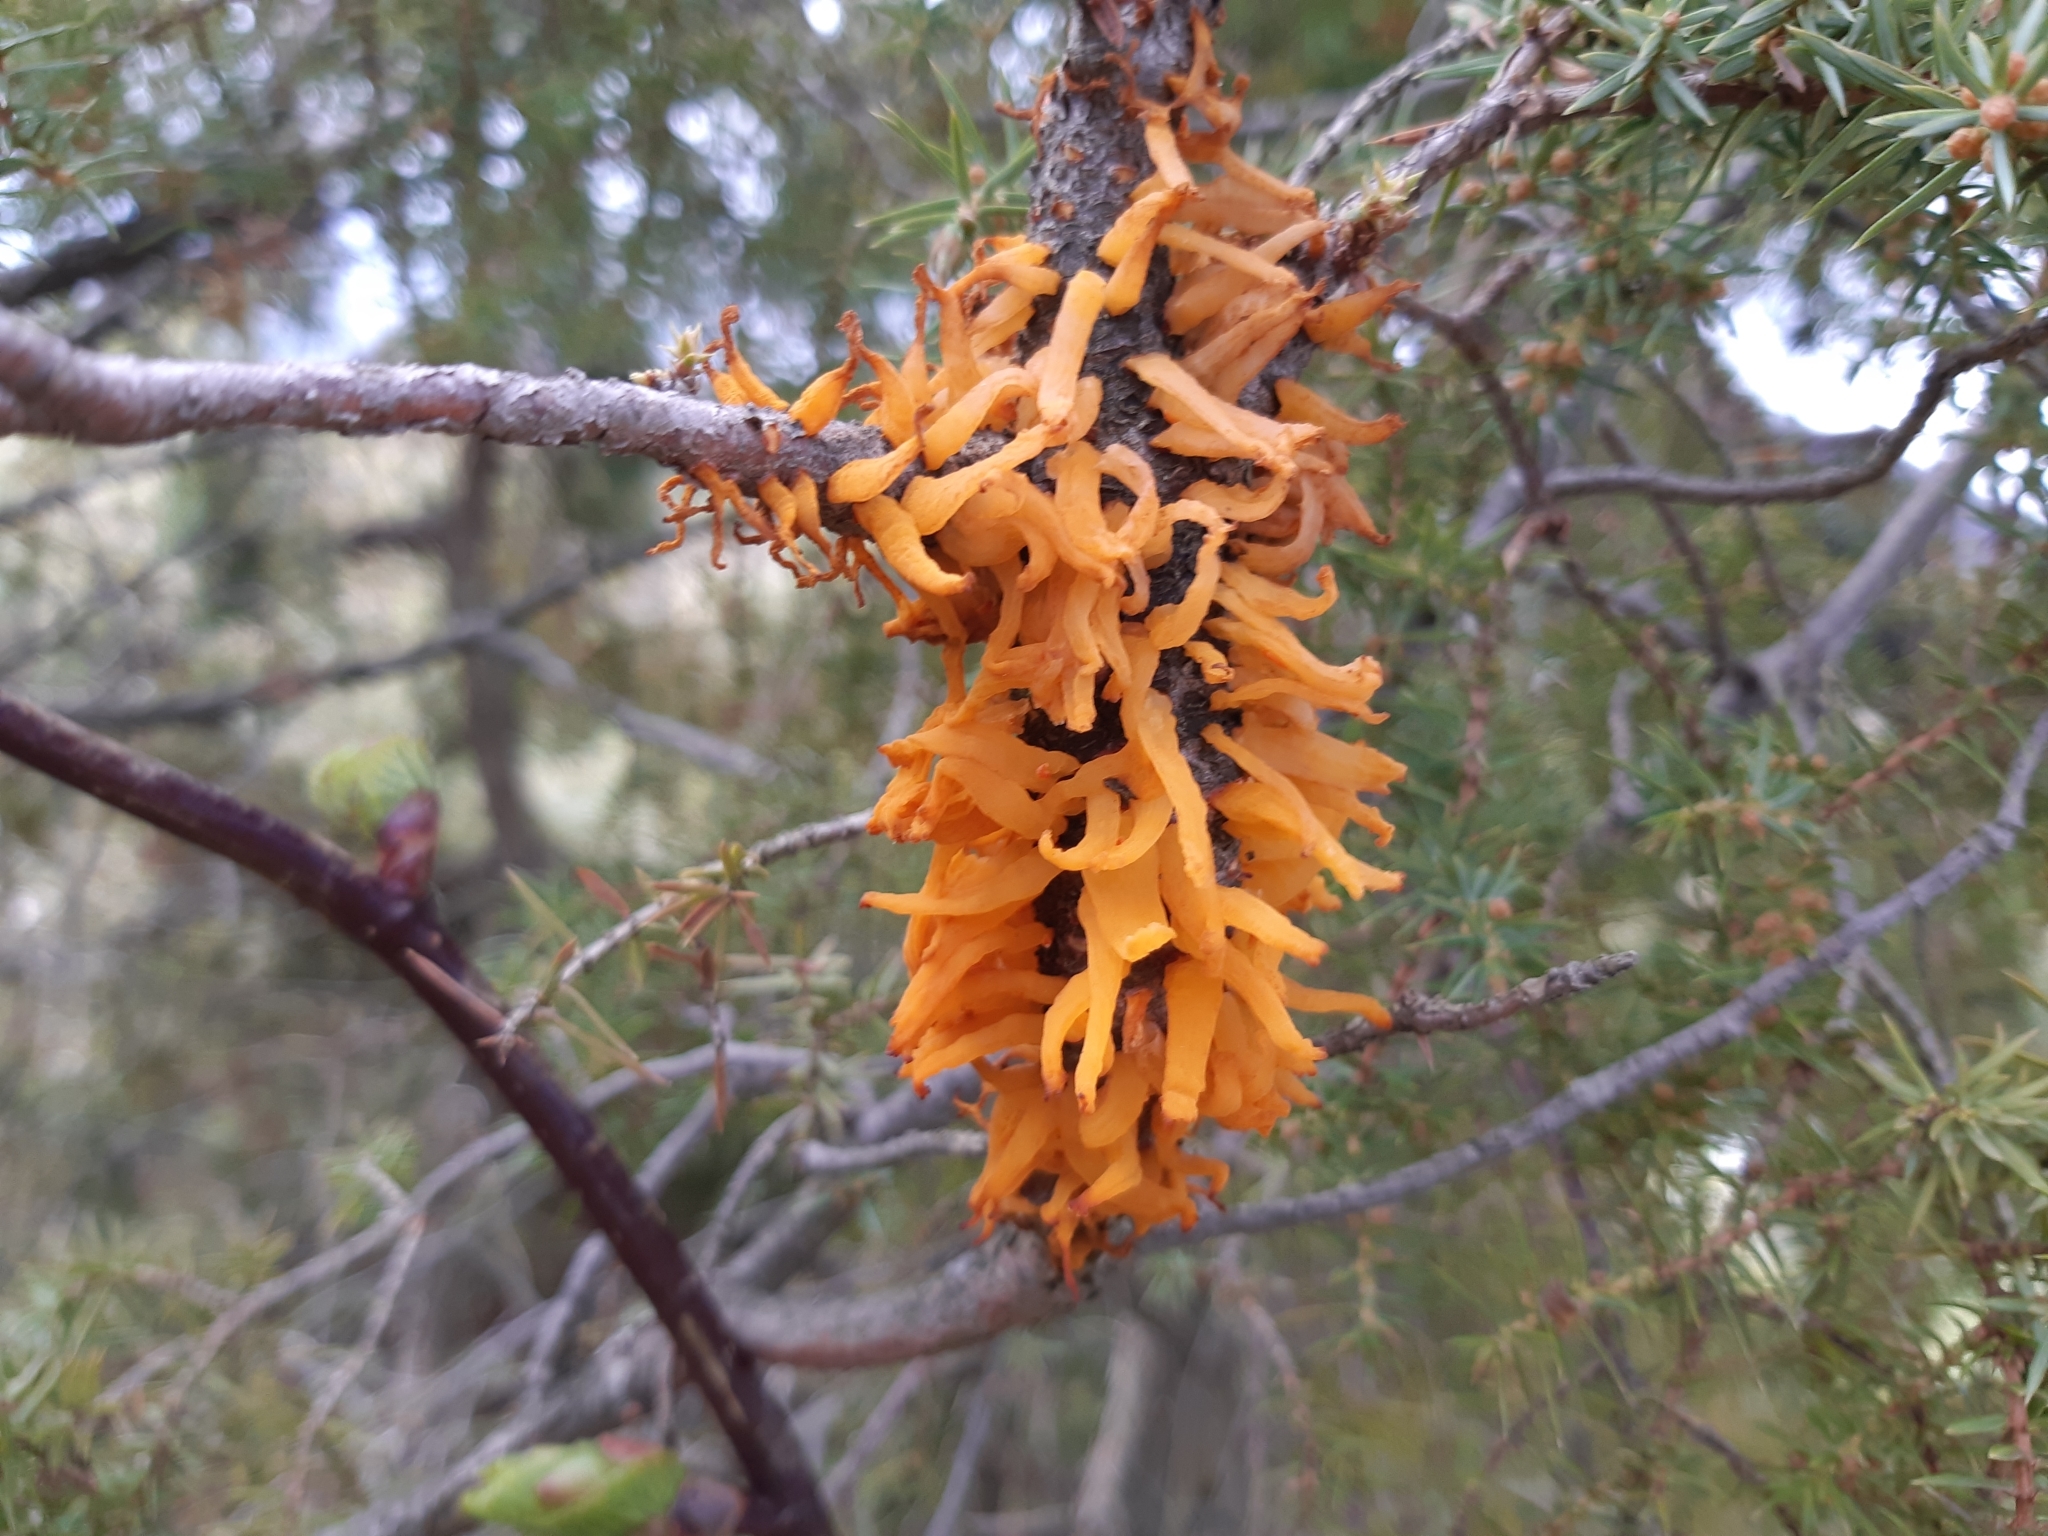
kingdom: Fungi
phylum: Basidiomycota
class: Pucciniomycetes
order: Pucciniales
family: Gymnosporangiaceae
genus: Gymnosporangium
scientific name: Gymnosporangium clavariiforme
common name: Tongues of fire
